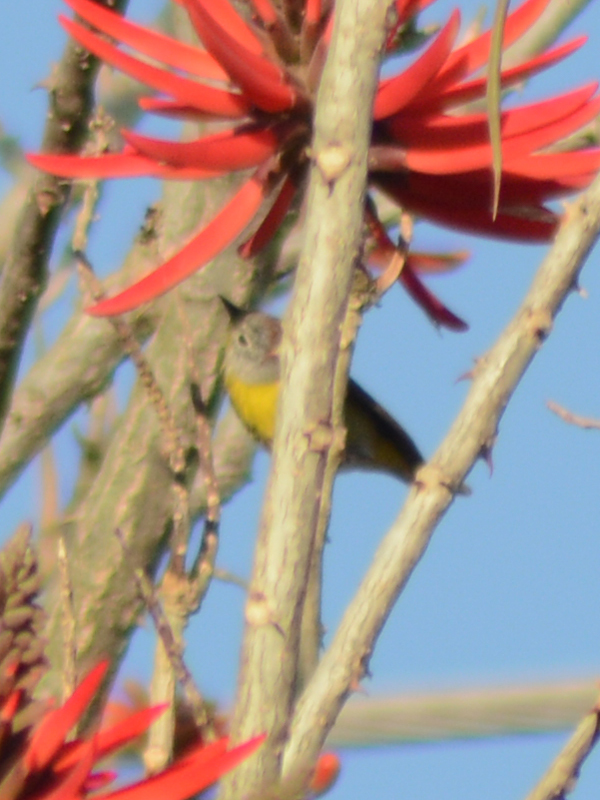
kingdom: Animalia
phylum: Chordata
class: Aves
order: Passeriformes
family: Parulidae
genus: Leiothlypis
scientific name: Leiothlypis ruficapilla
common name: Nashville warbler
